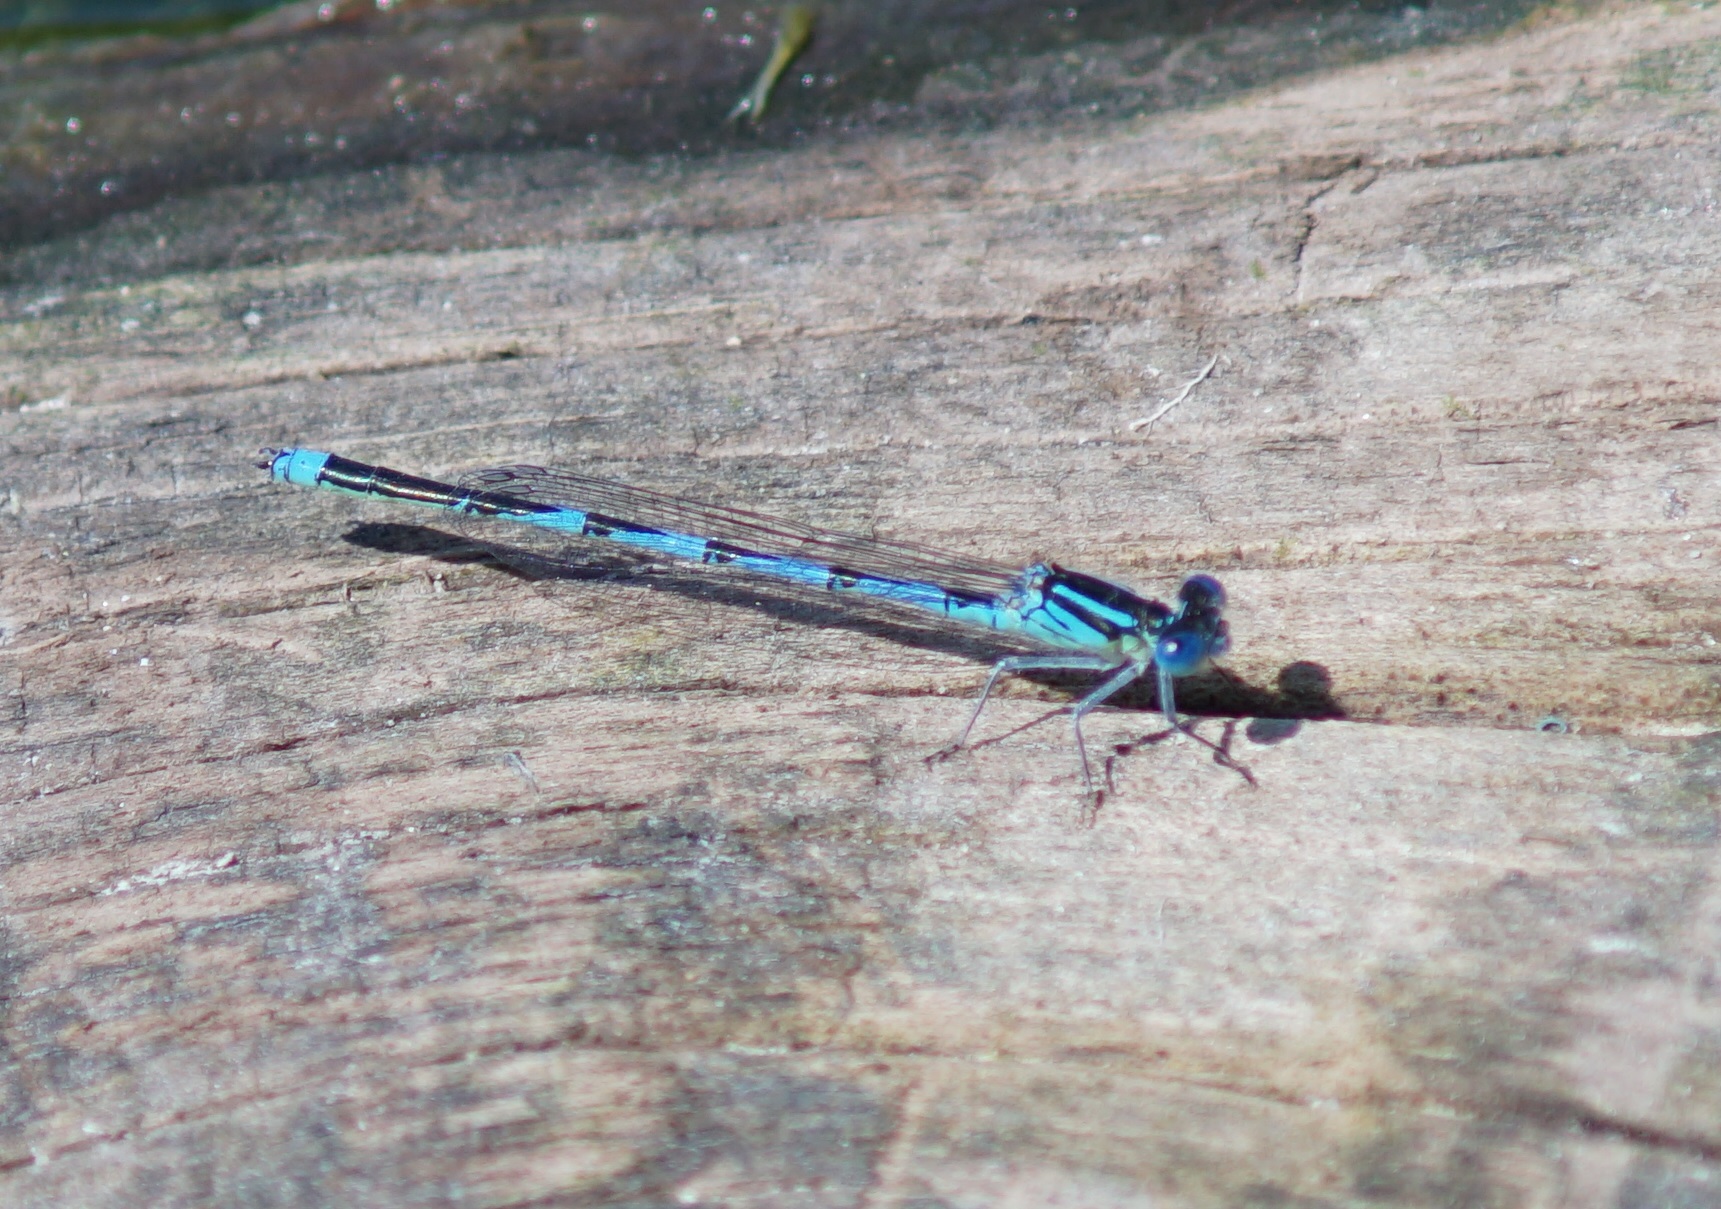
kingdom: Animalia
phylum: Arthropoda
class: Insecta
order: Odonata
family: Coenagrionidae
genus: Erythromma
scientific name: Erythromma lindenii
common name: Blue-eye
